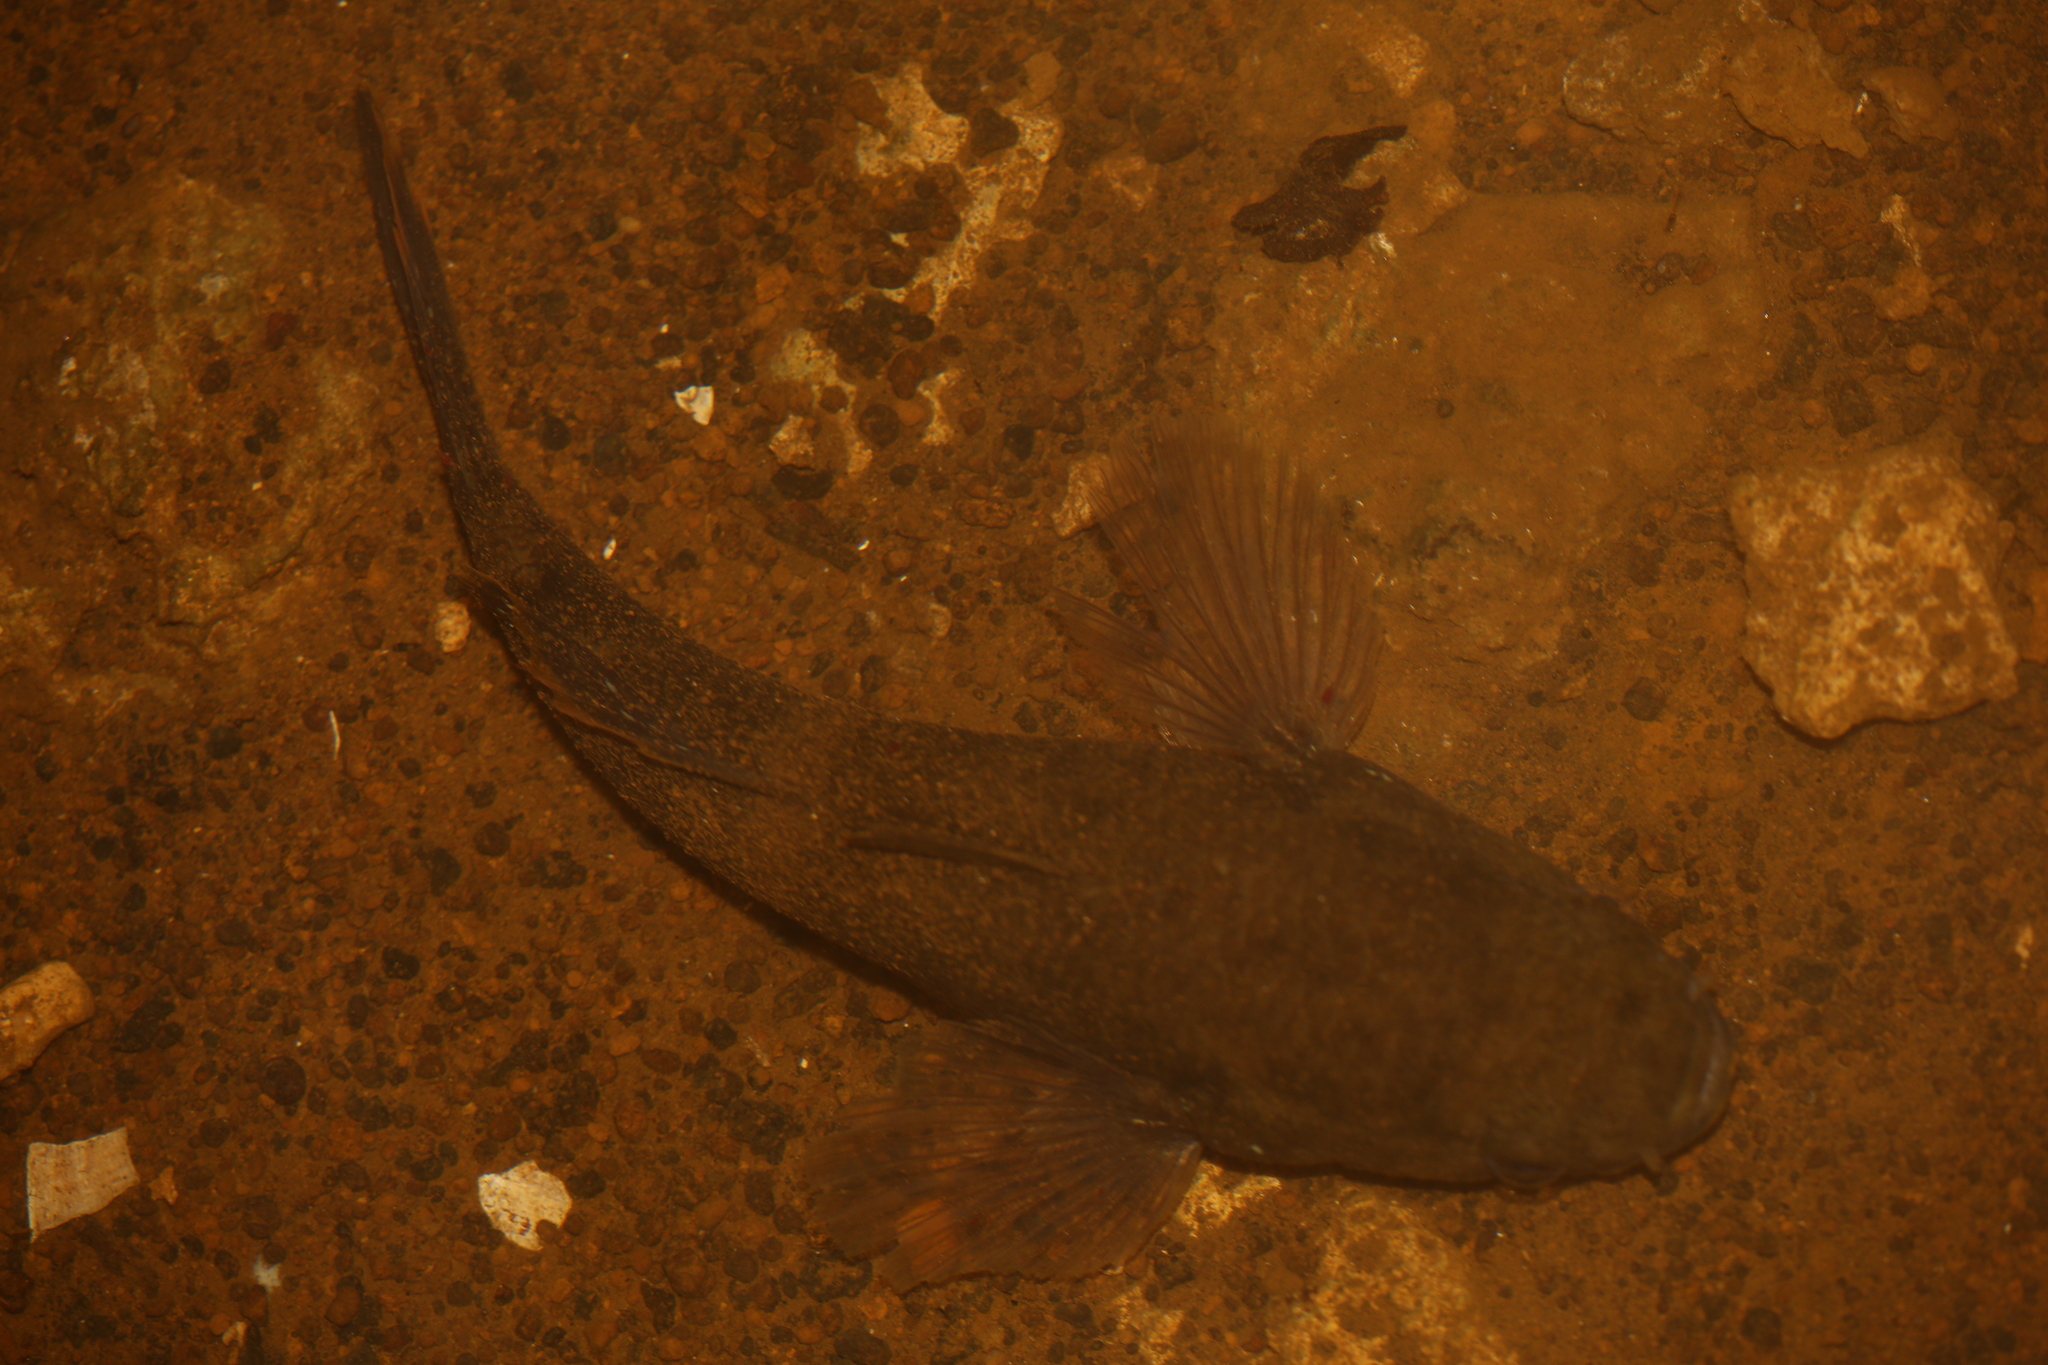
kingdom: Animalia
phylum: Chordata
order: Perciformes
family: Eleotridae
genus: Ophiocara
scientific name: Ophiocara porocephala
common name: Spangled gudgeon
